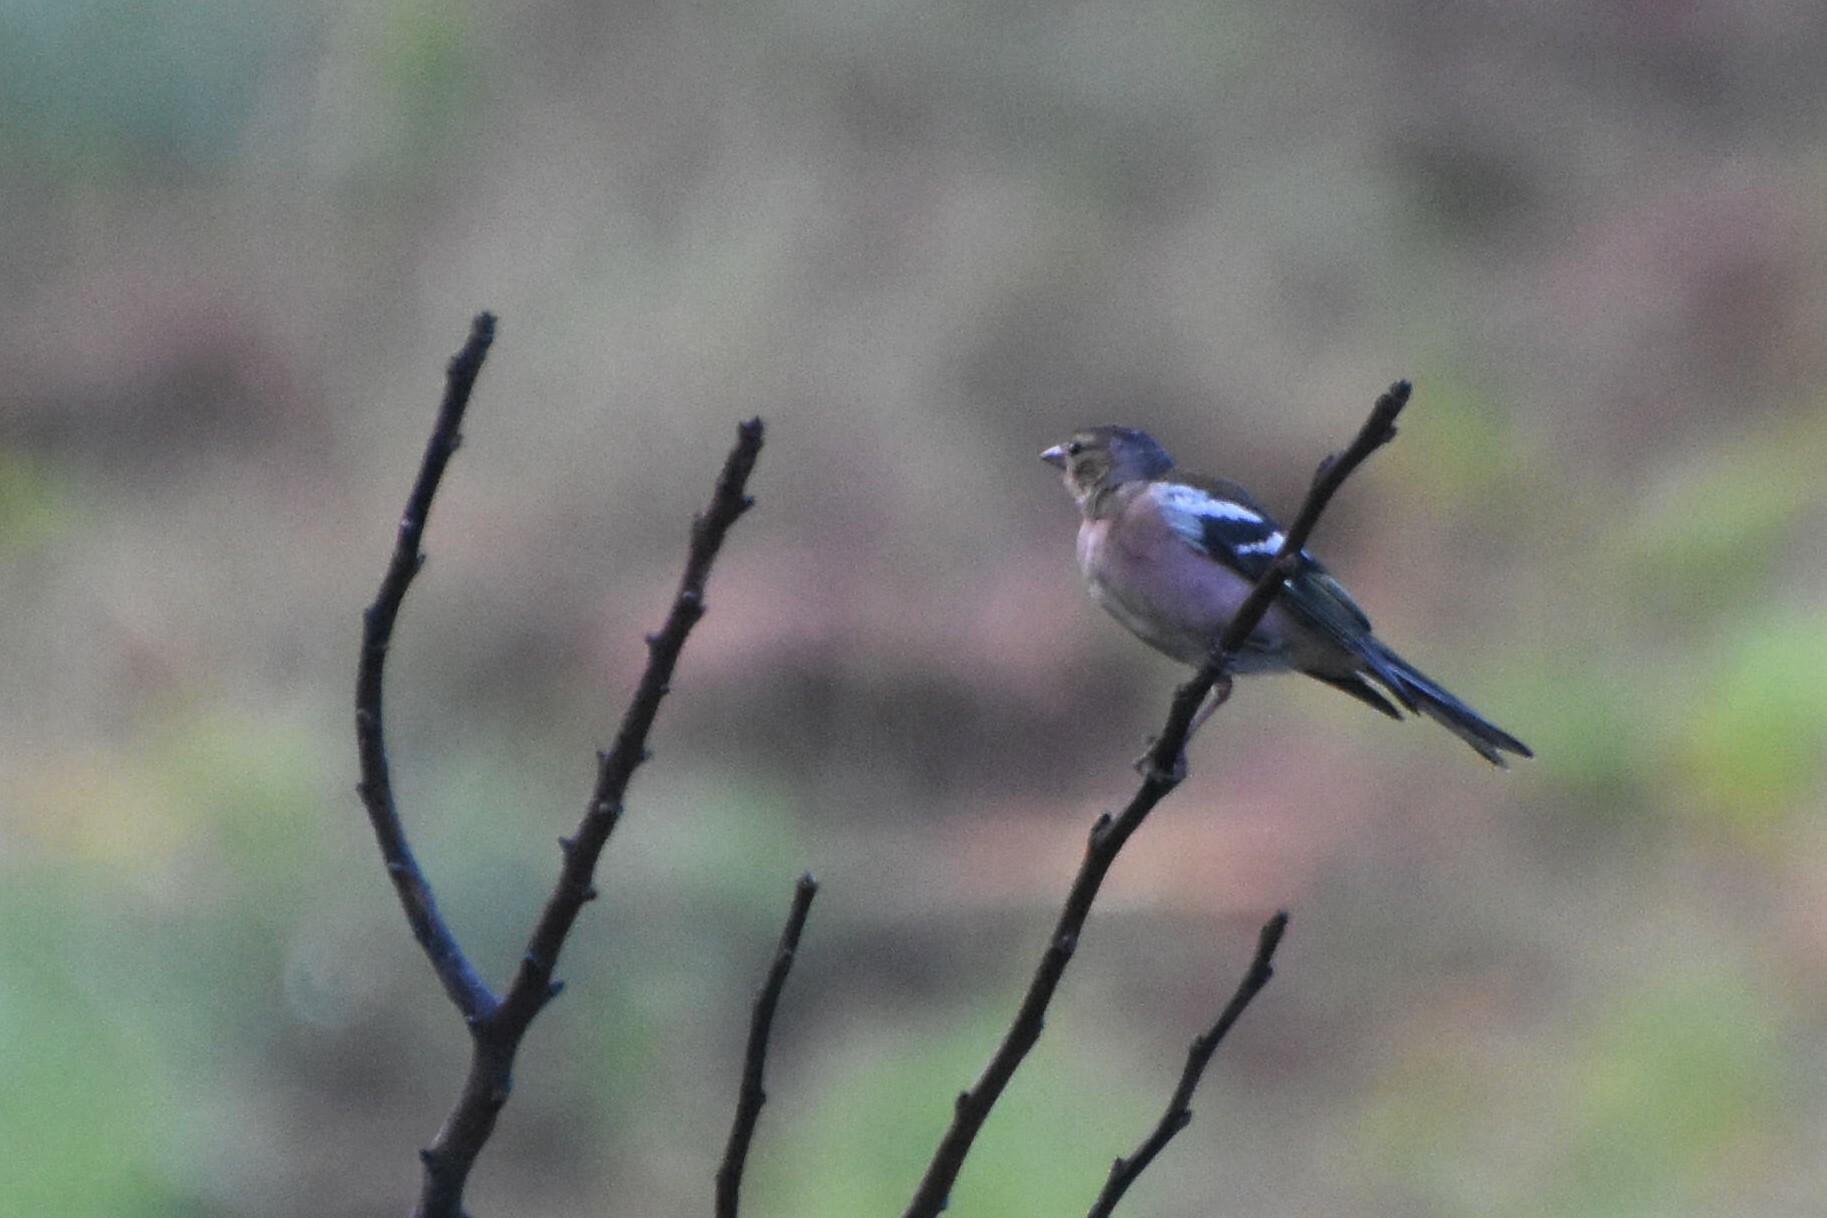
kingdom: Animalia
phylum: Chordata
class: Aves
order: Passeriformes
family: Fringillidae
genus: Fringilla
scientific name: Fringilla coelebs
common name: Common chaffinch
